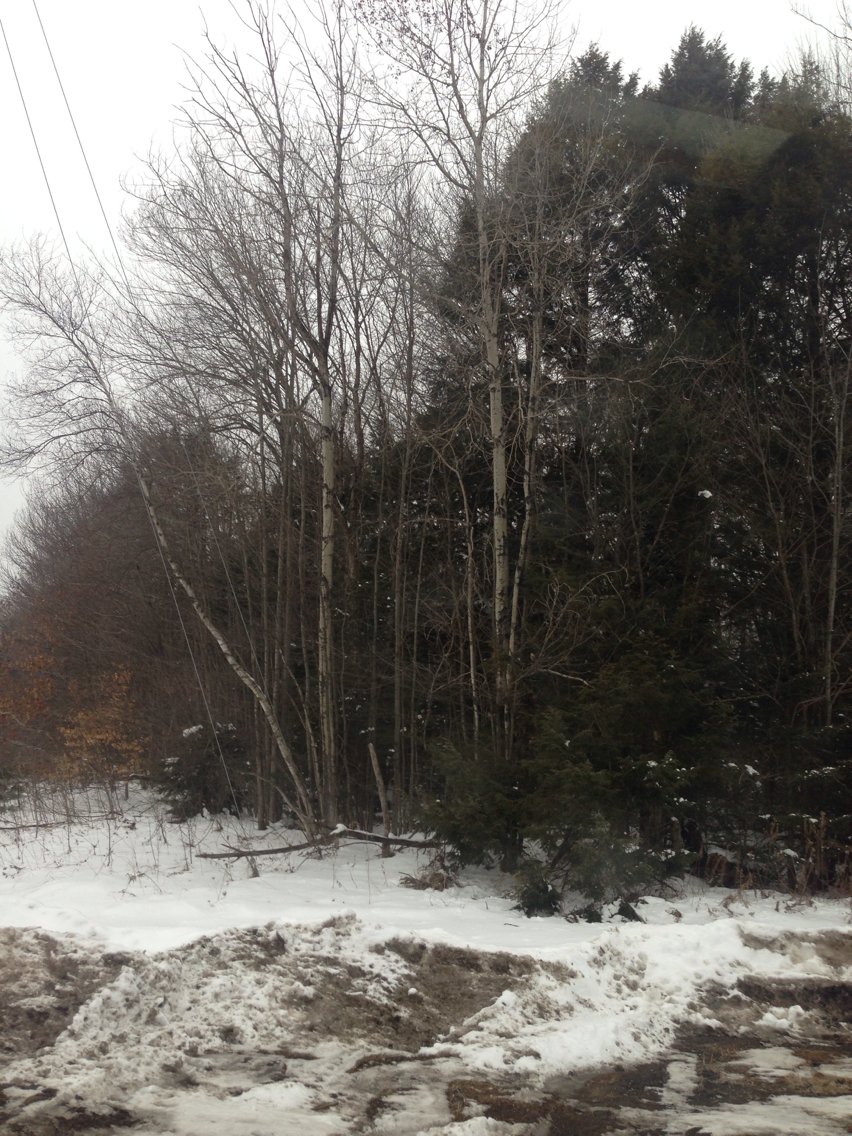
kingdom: Plantae
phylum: Tracheophyta
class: Magnoliopsida
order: Malpighiales
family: Salicaceae
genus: Populus
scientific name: Populus tremuloides
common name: Quaking aspen
